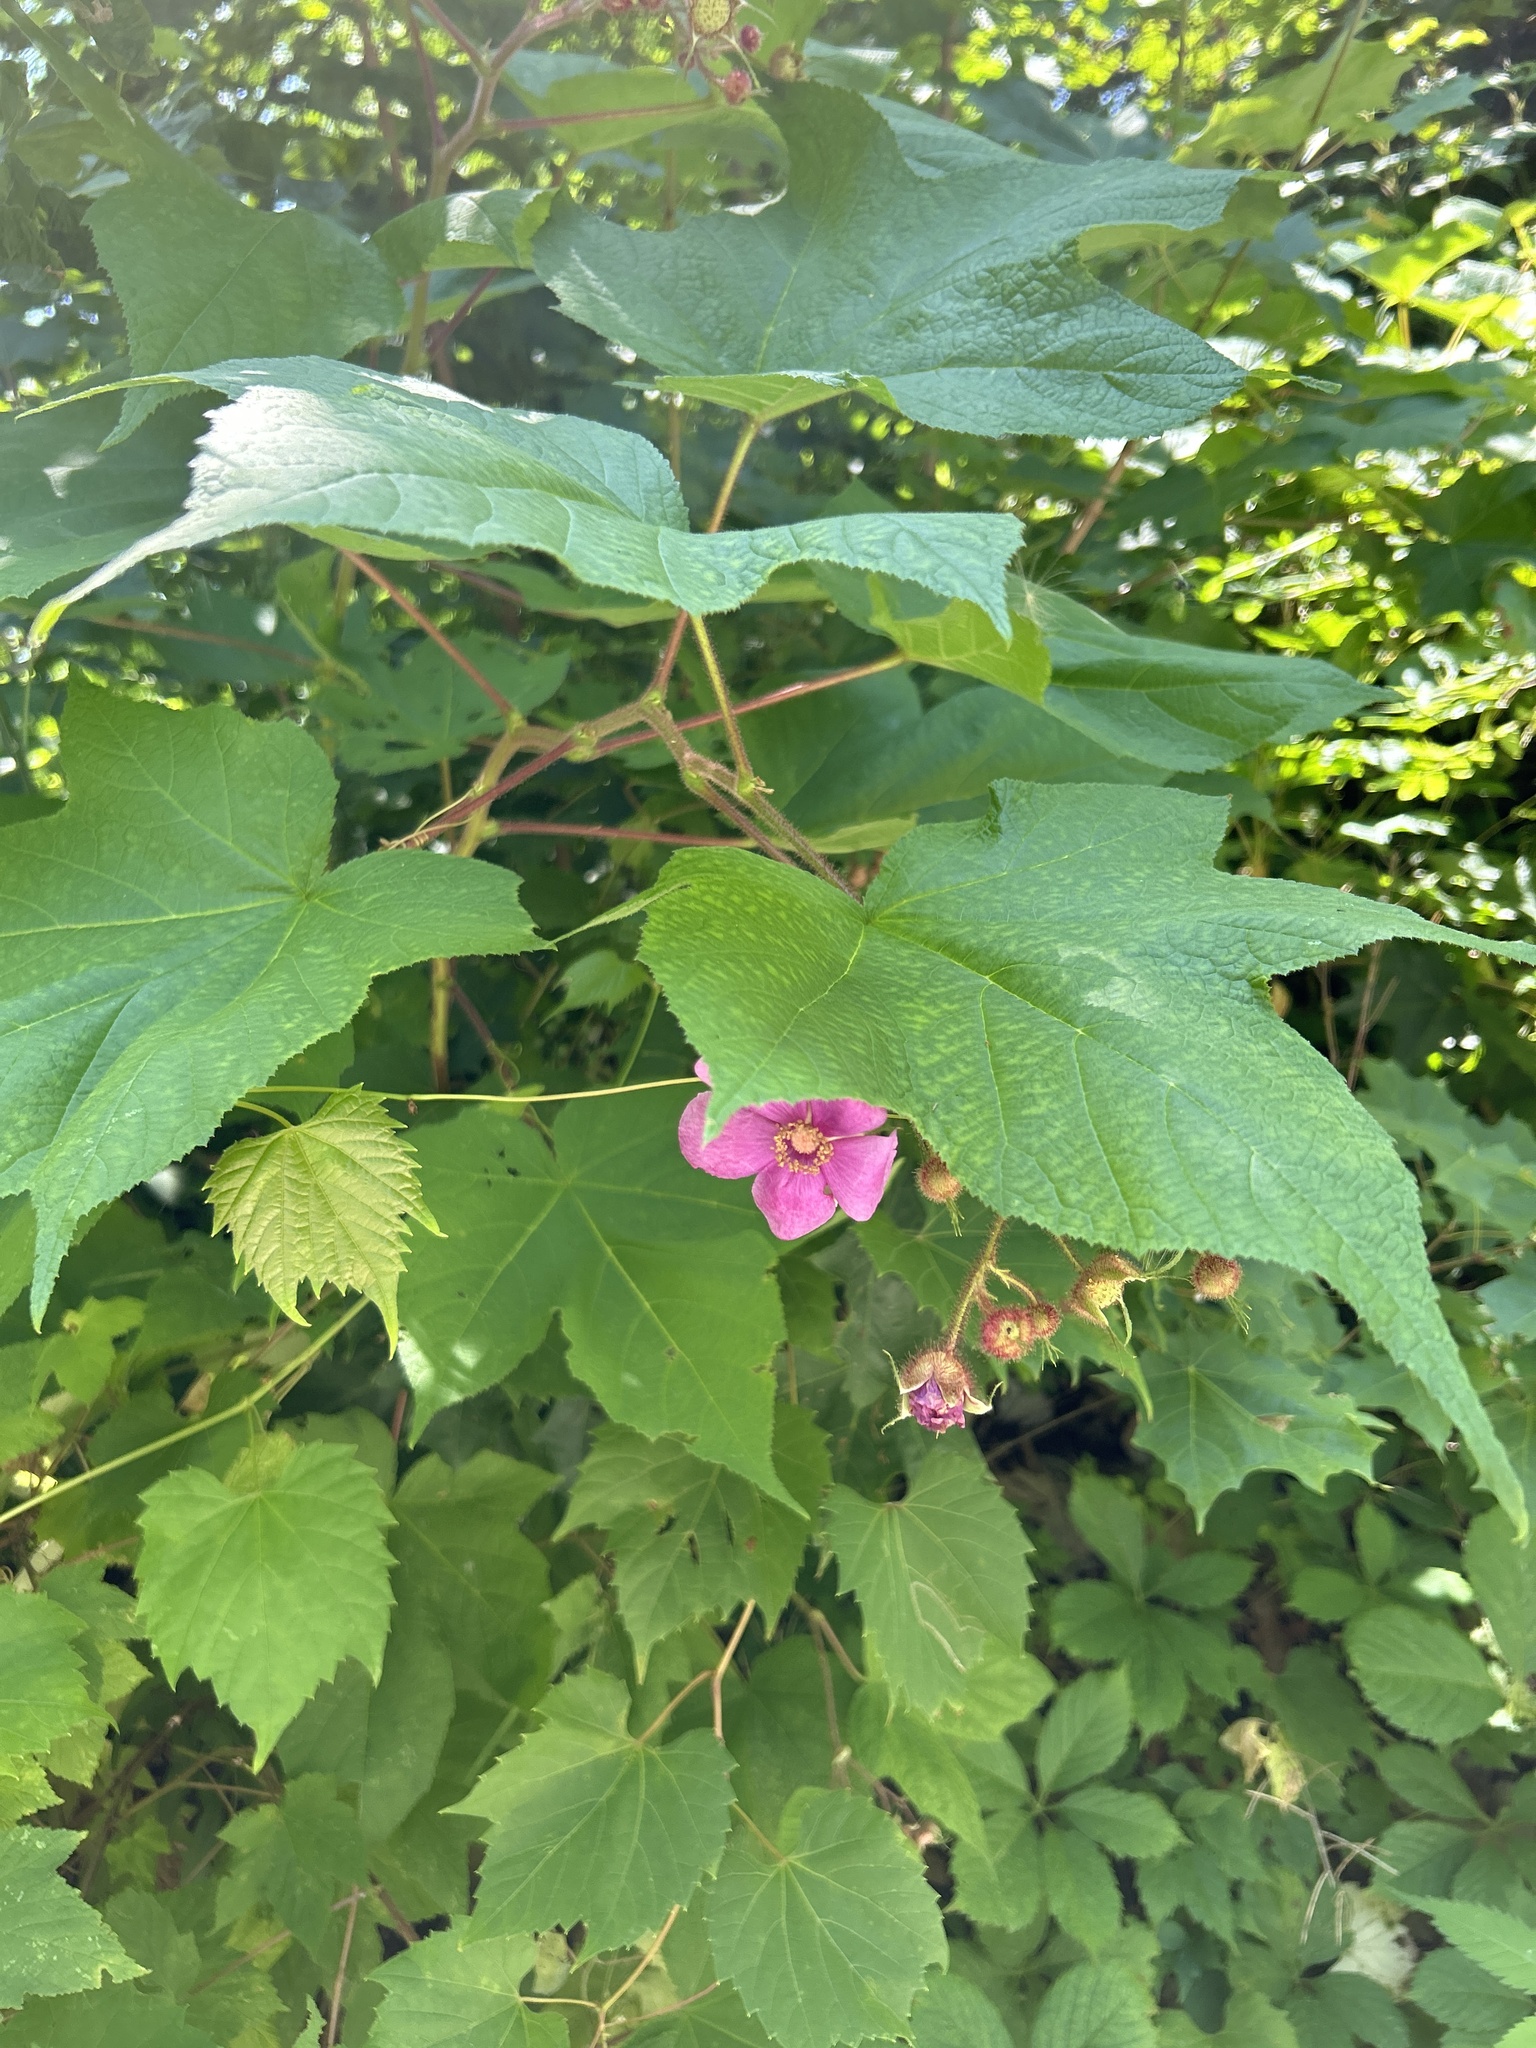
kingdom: Plantae
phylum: Tracheophyta
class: Magnoliopsida
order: Rosales
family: Rosaceae
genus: Rubus
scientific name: Rubus odoratus
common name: Purple-flowered raspberry
